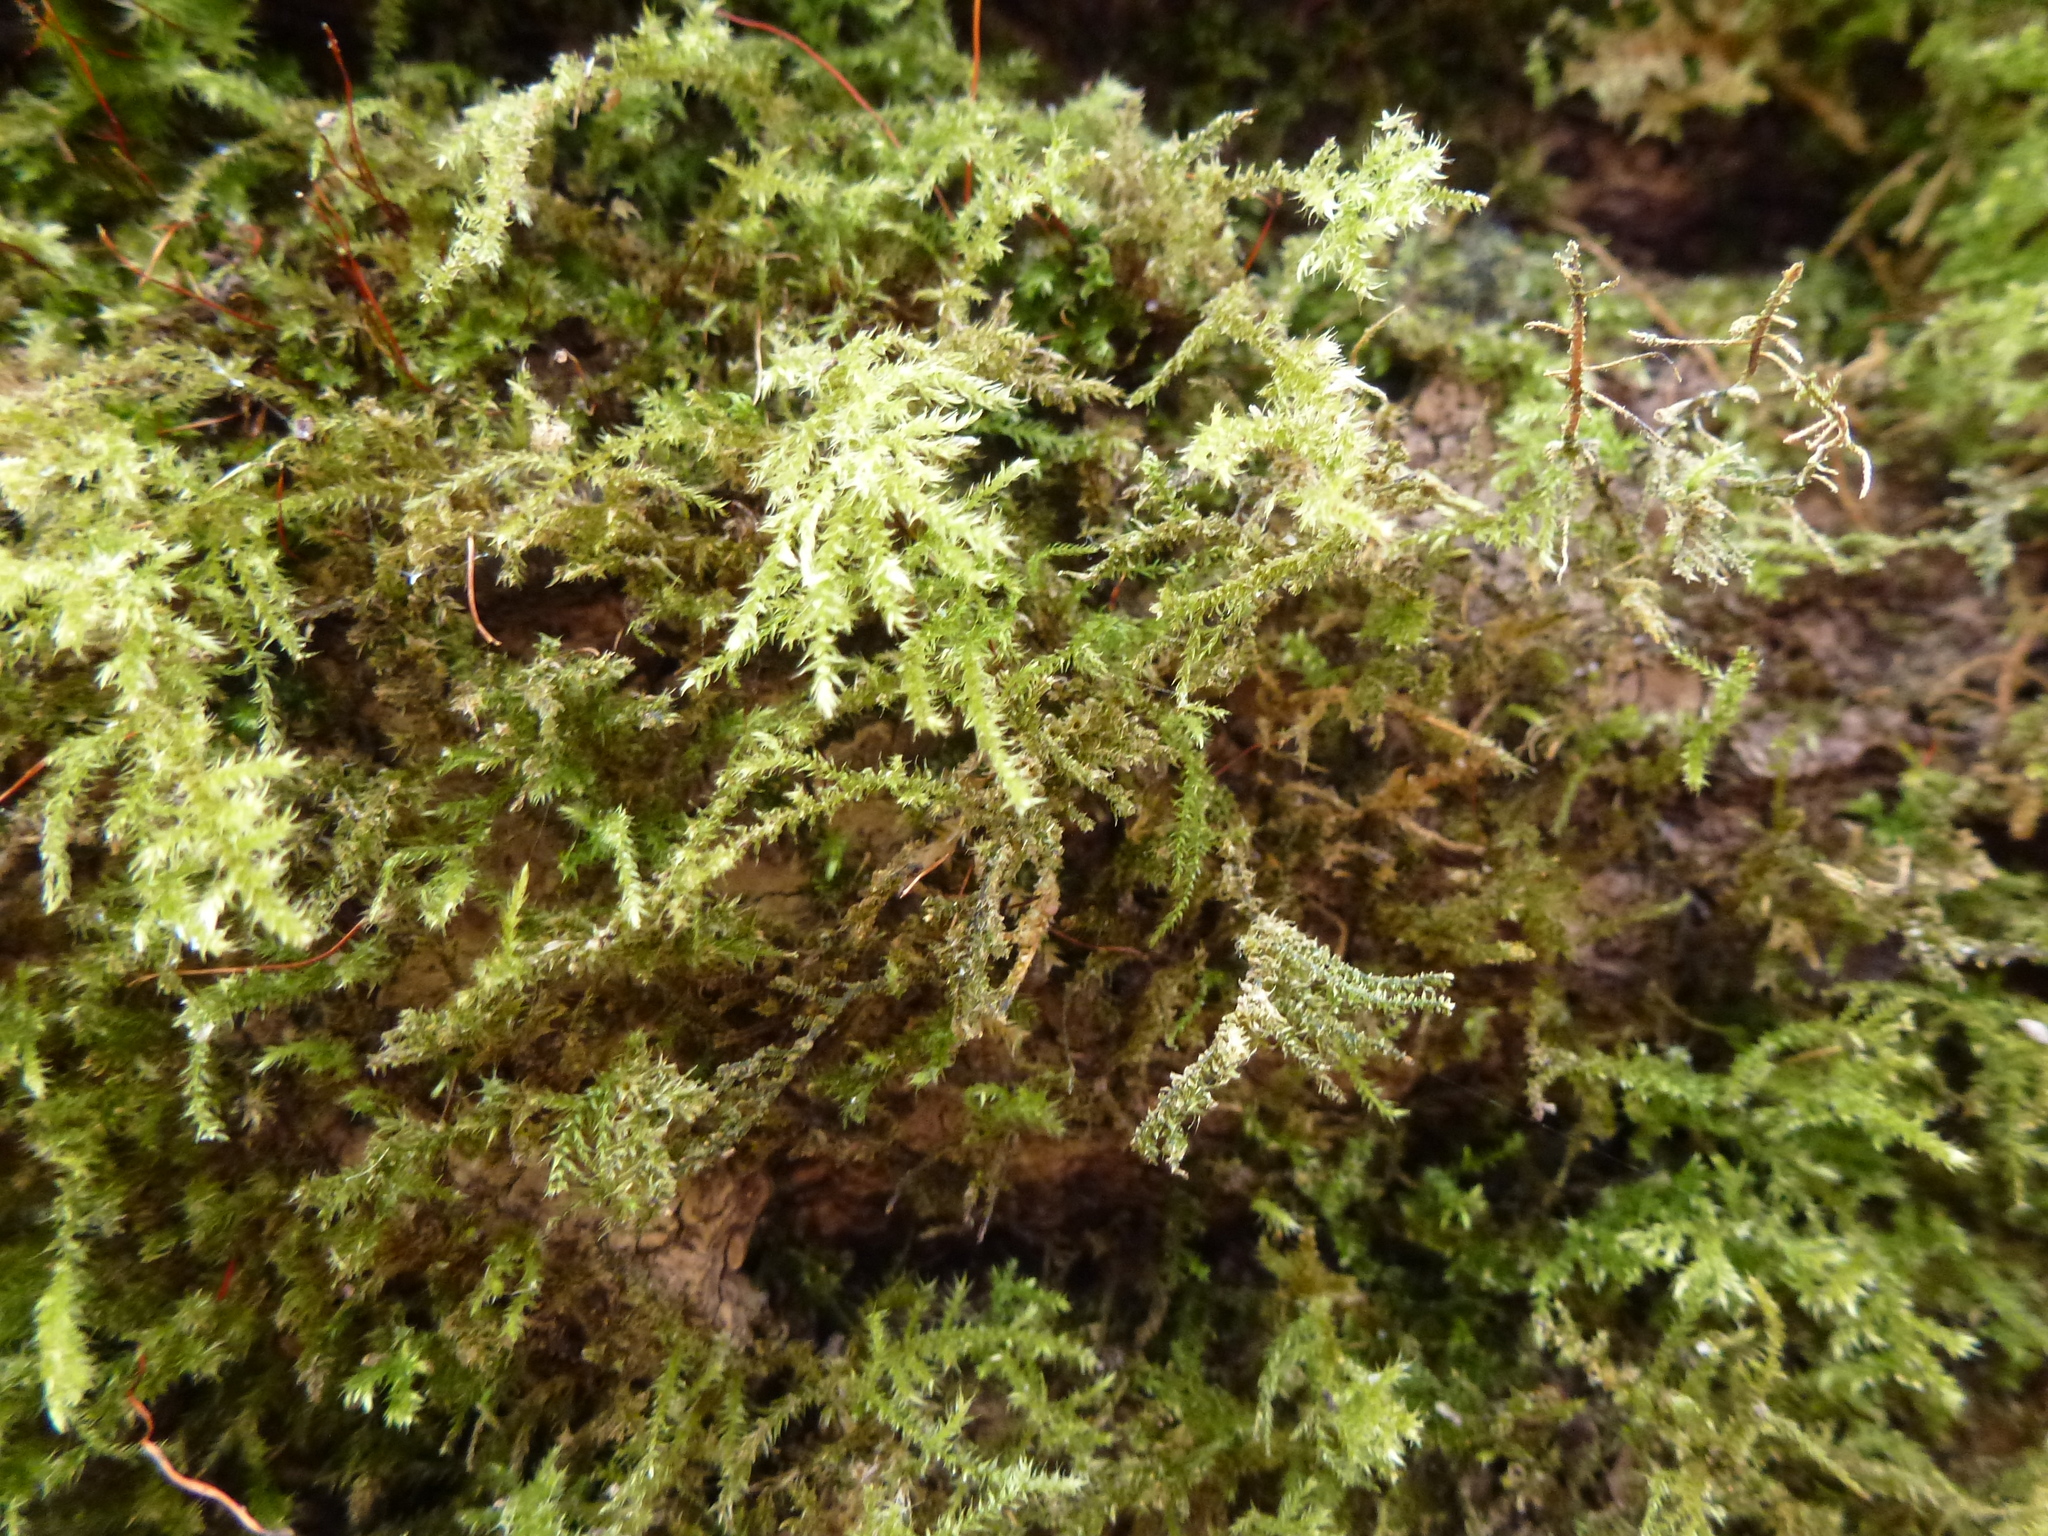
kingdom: Plantae
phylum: Bryophyta
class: Bryopsida
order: Hypnales
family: Brachytheciaceae
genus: Kindbergia
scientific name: Kindbergia praelonga
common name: Slender beaked moss
